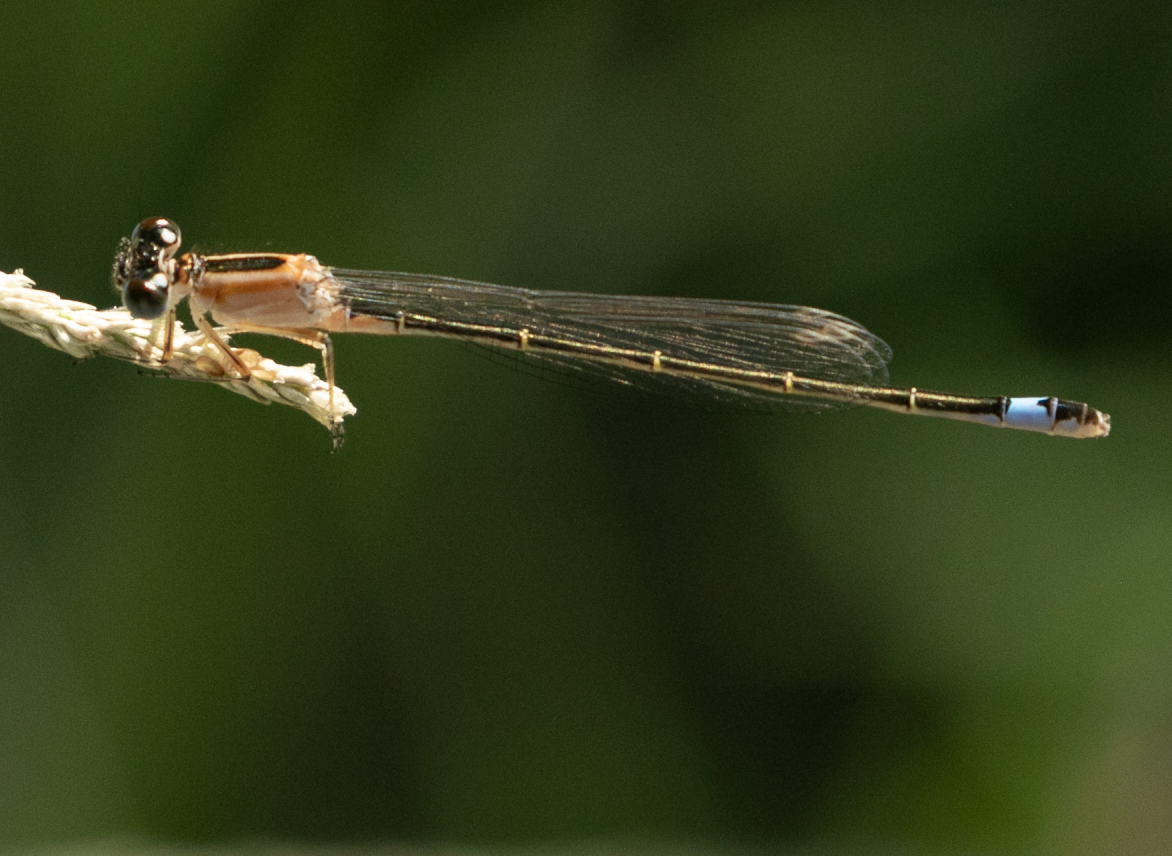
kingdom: Animalia
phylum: Arthropoda
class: Insecta
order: Odonata
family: Coenagrionidae
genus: Ischnura
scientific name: Ischnura elegans
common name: Blue-tailed damselfly
